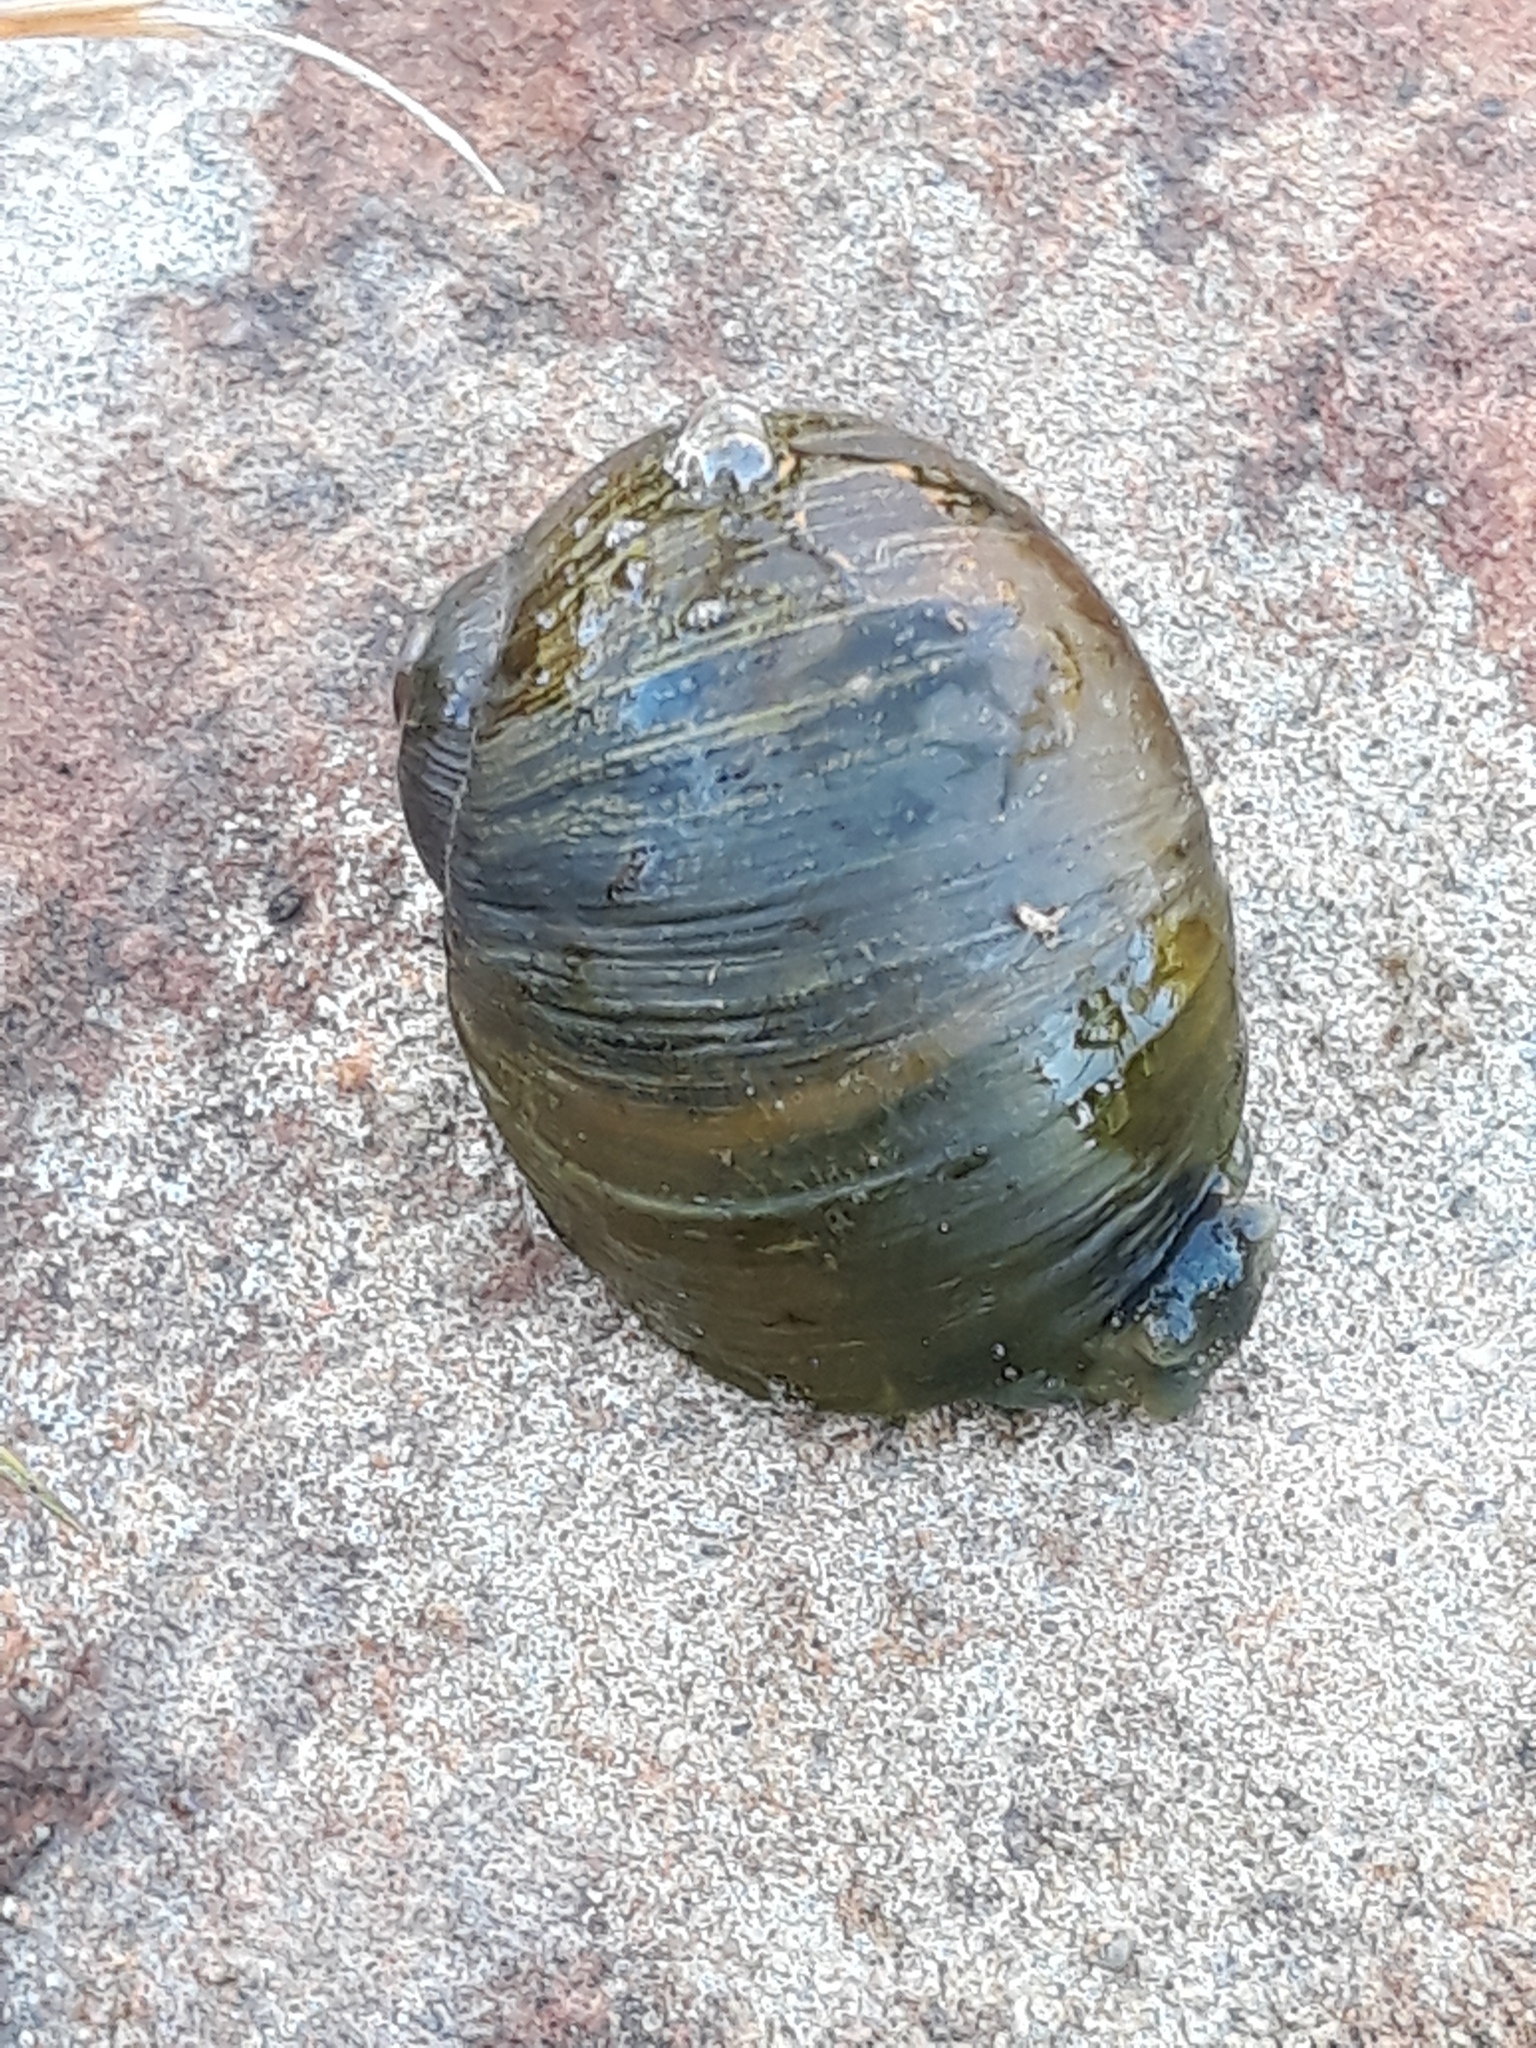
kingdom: Animalia
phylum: Mollusca
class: Gastropoda
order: Stylommatophora
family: Helicidae
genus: Cantareus
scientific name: Cantareus apertus
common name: Green gardensnail
